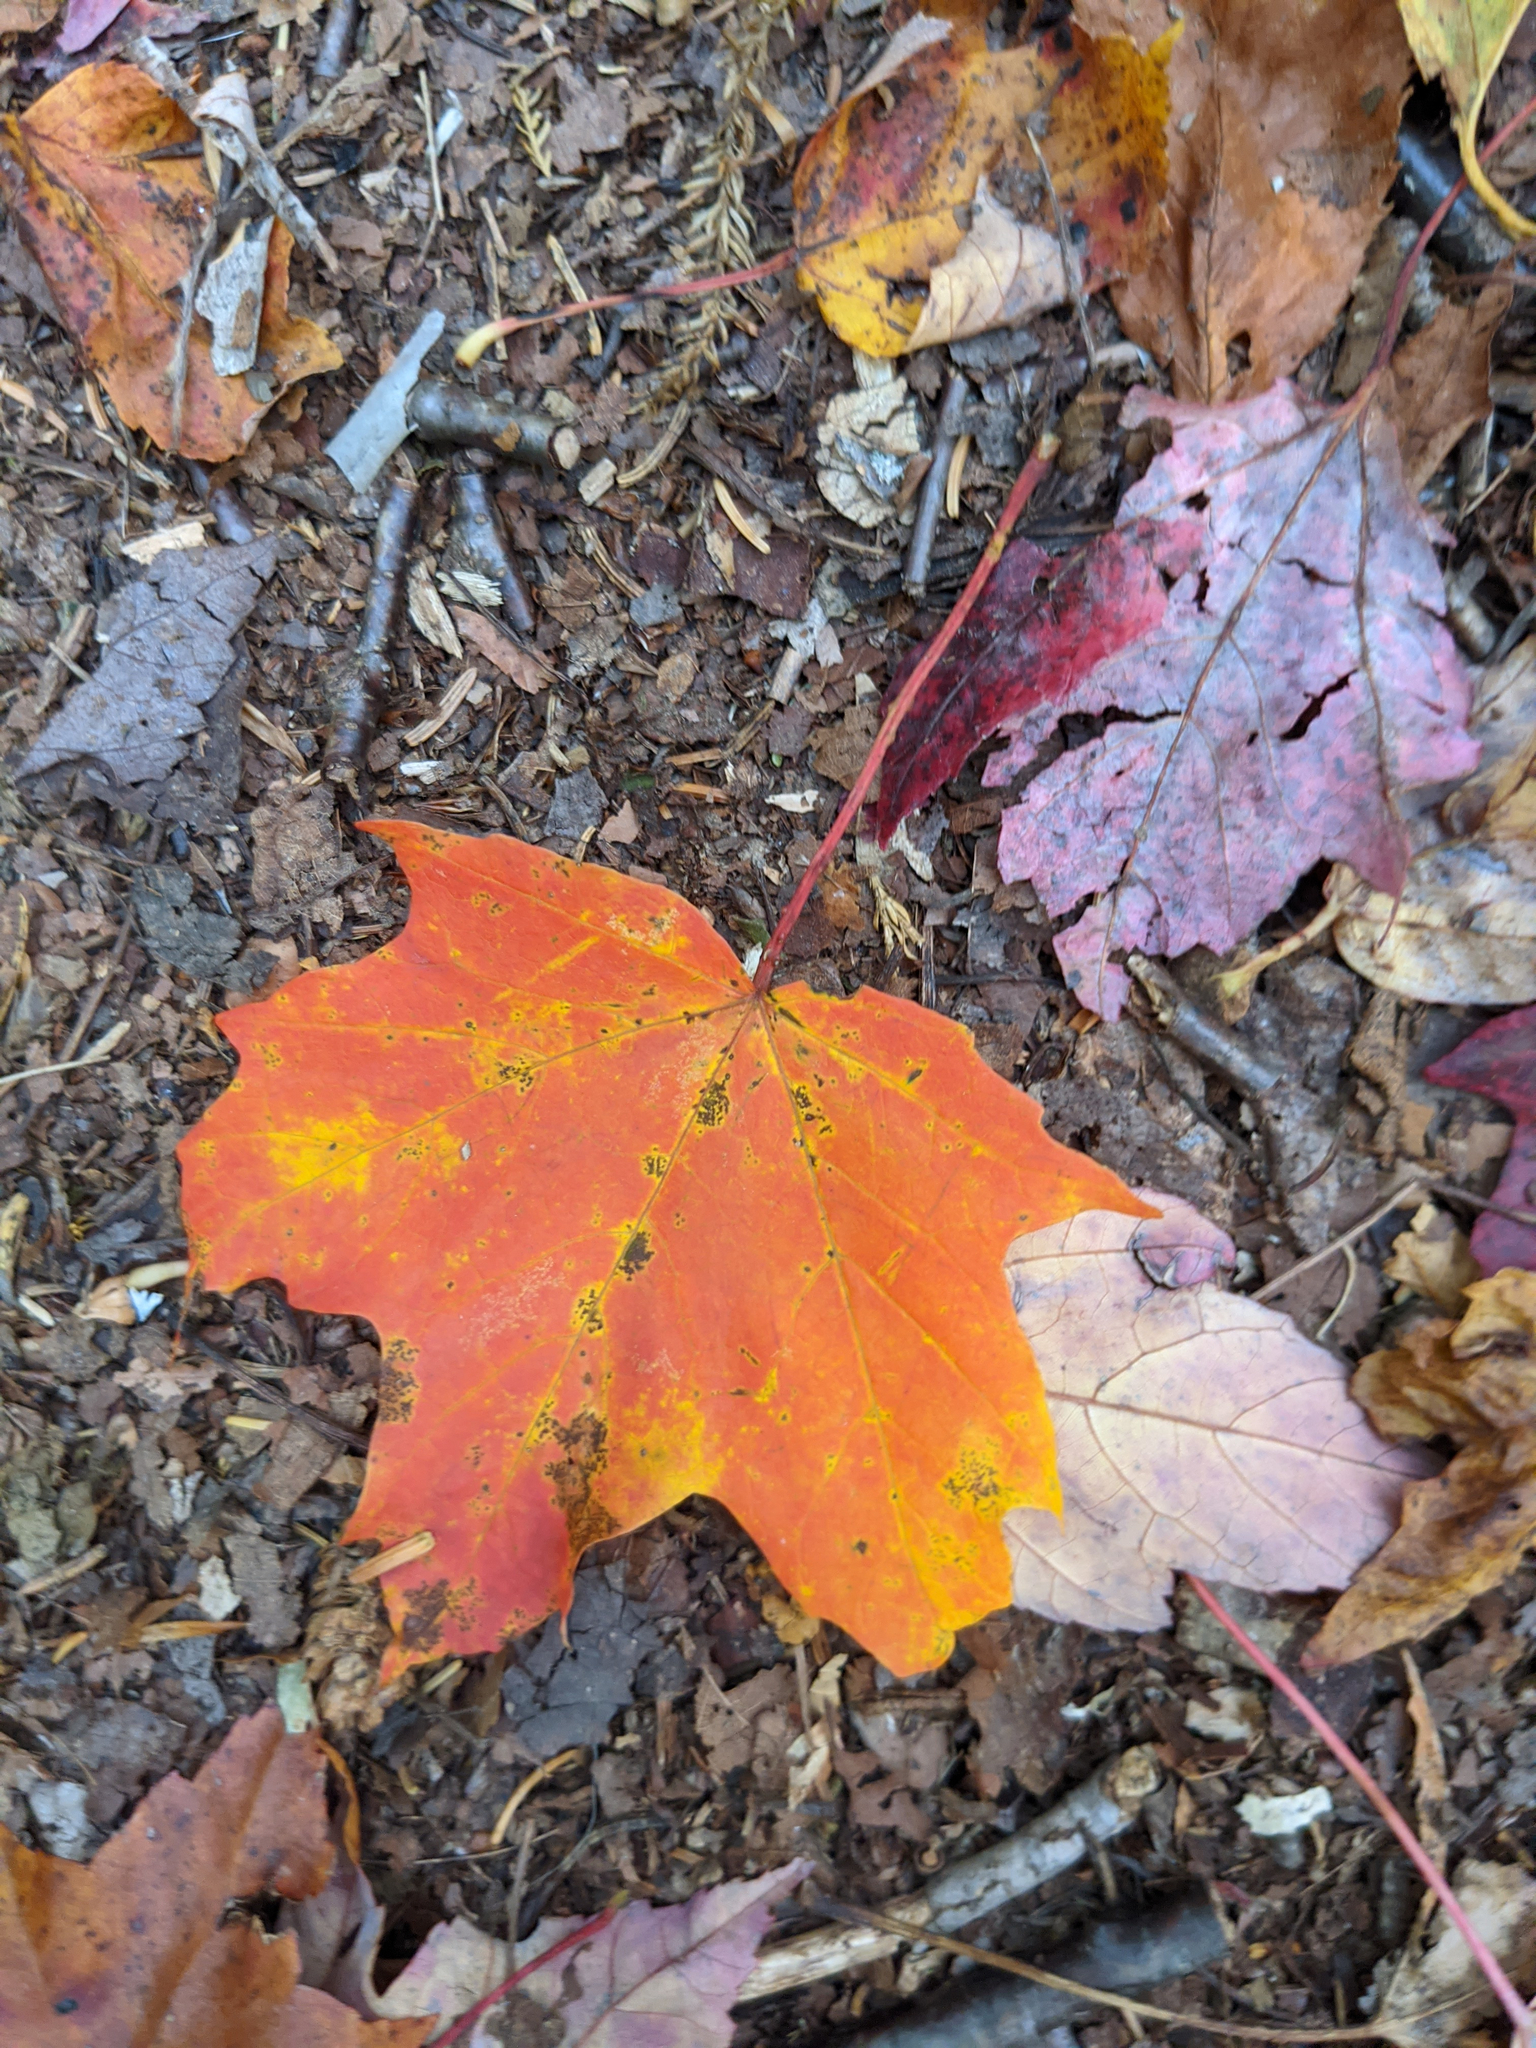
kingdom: Plantae
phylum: Tracheophyta
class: Magnoliopsida
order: Sapindales
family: Sapindaceae
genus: Acer
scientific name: Acer saccharum
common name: Sugar maple
